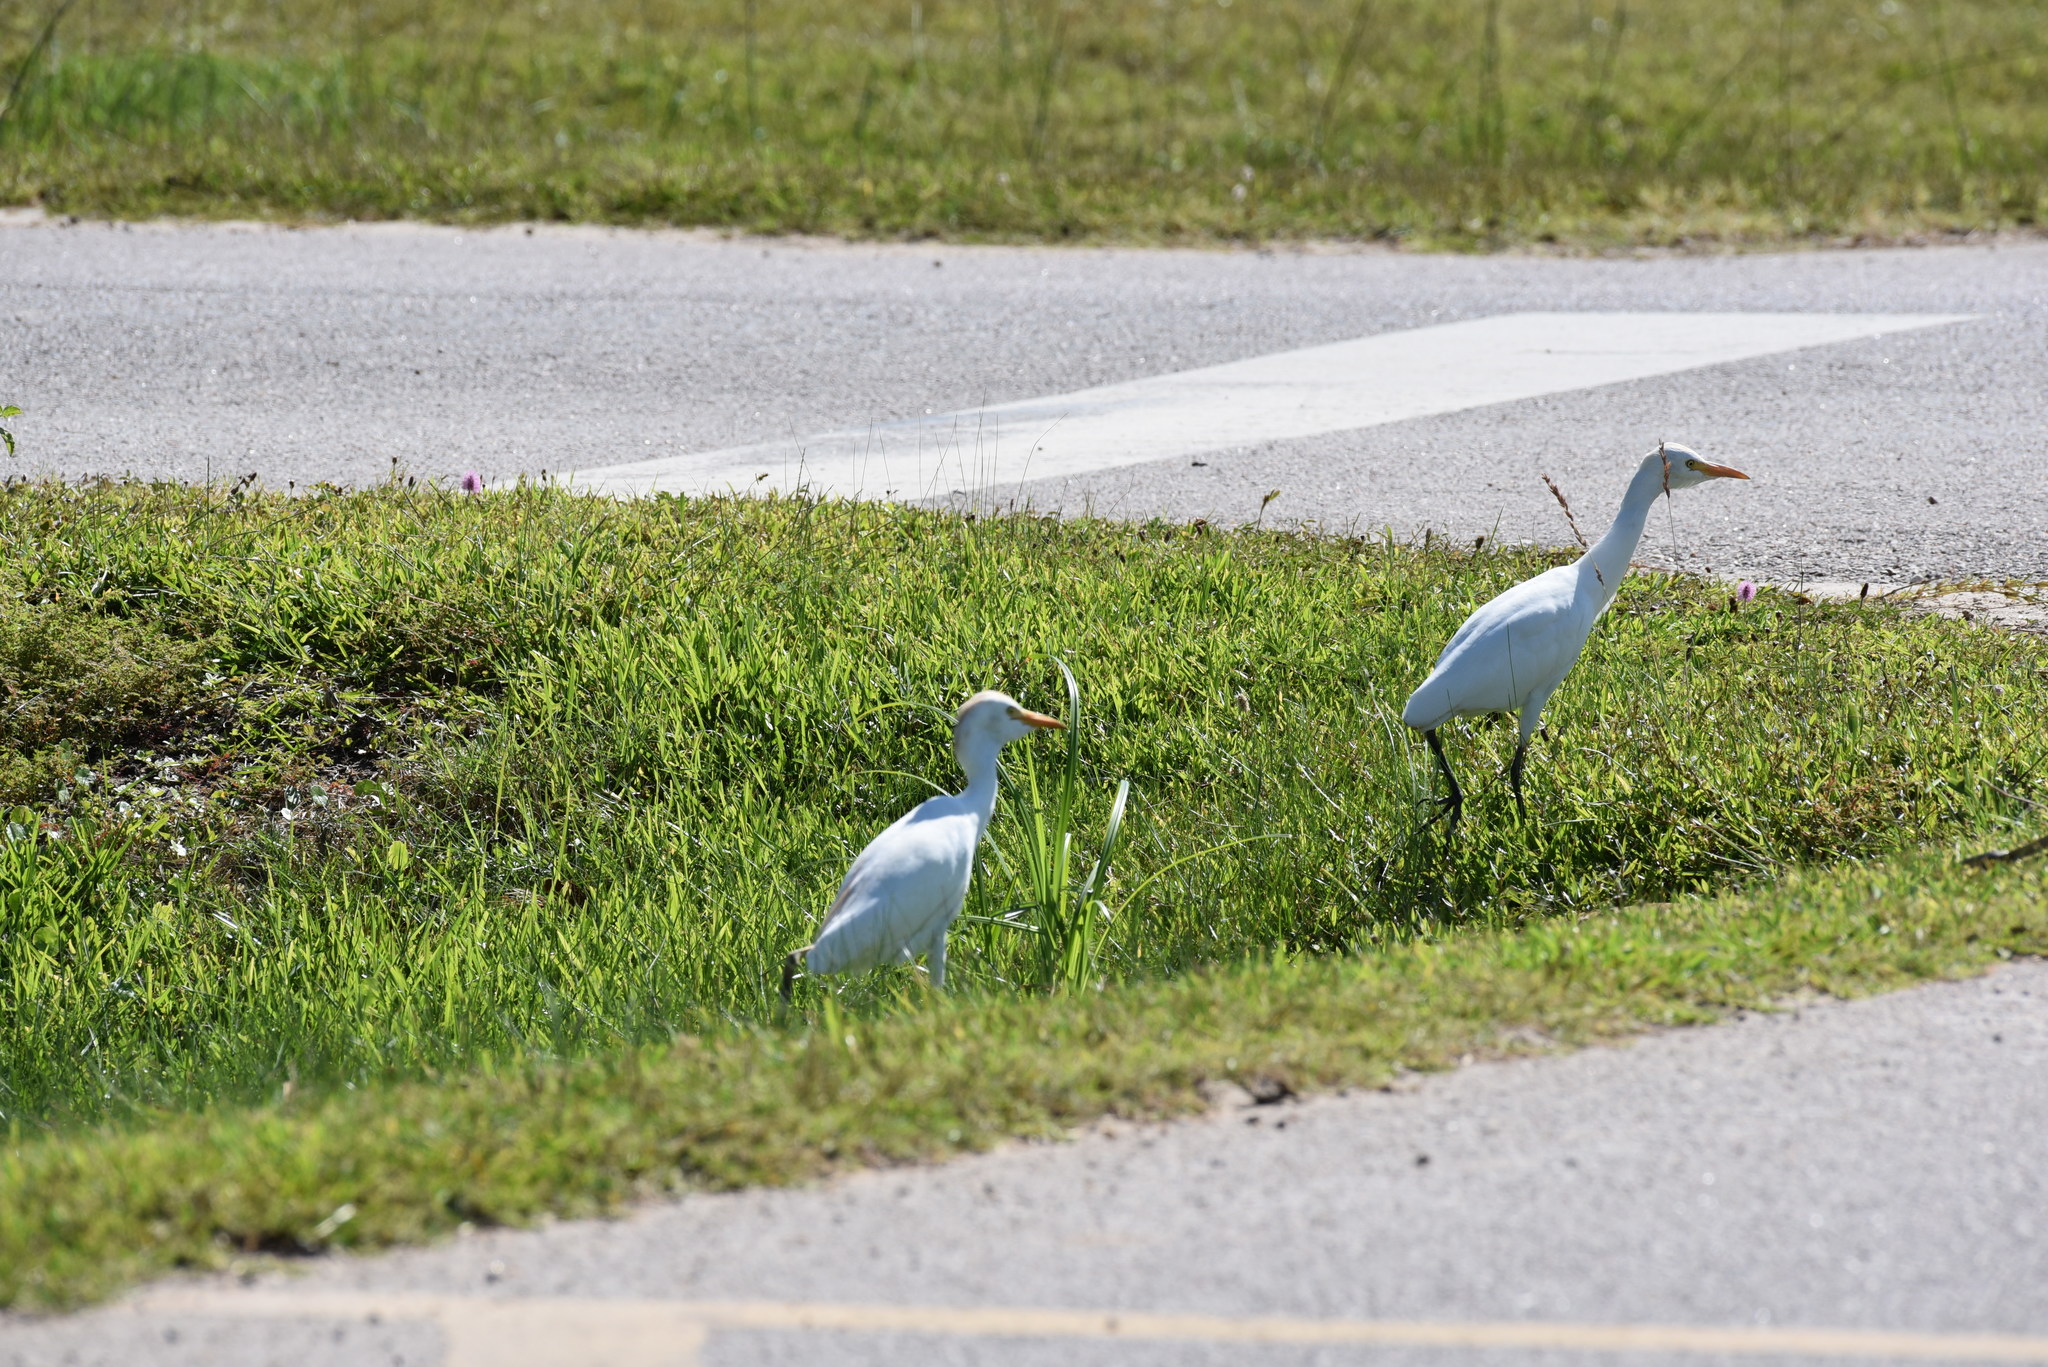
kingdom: Animalia
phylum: Chordata
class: Aves
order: Pelecaniformes
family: Ardeidae
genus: Bubulcus
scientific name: Bubulcus ibis
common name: Cattle egret
